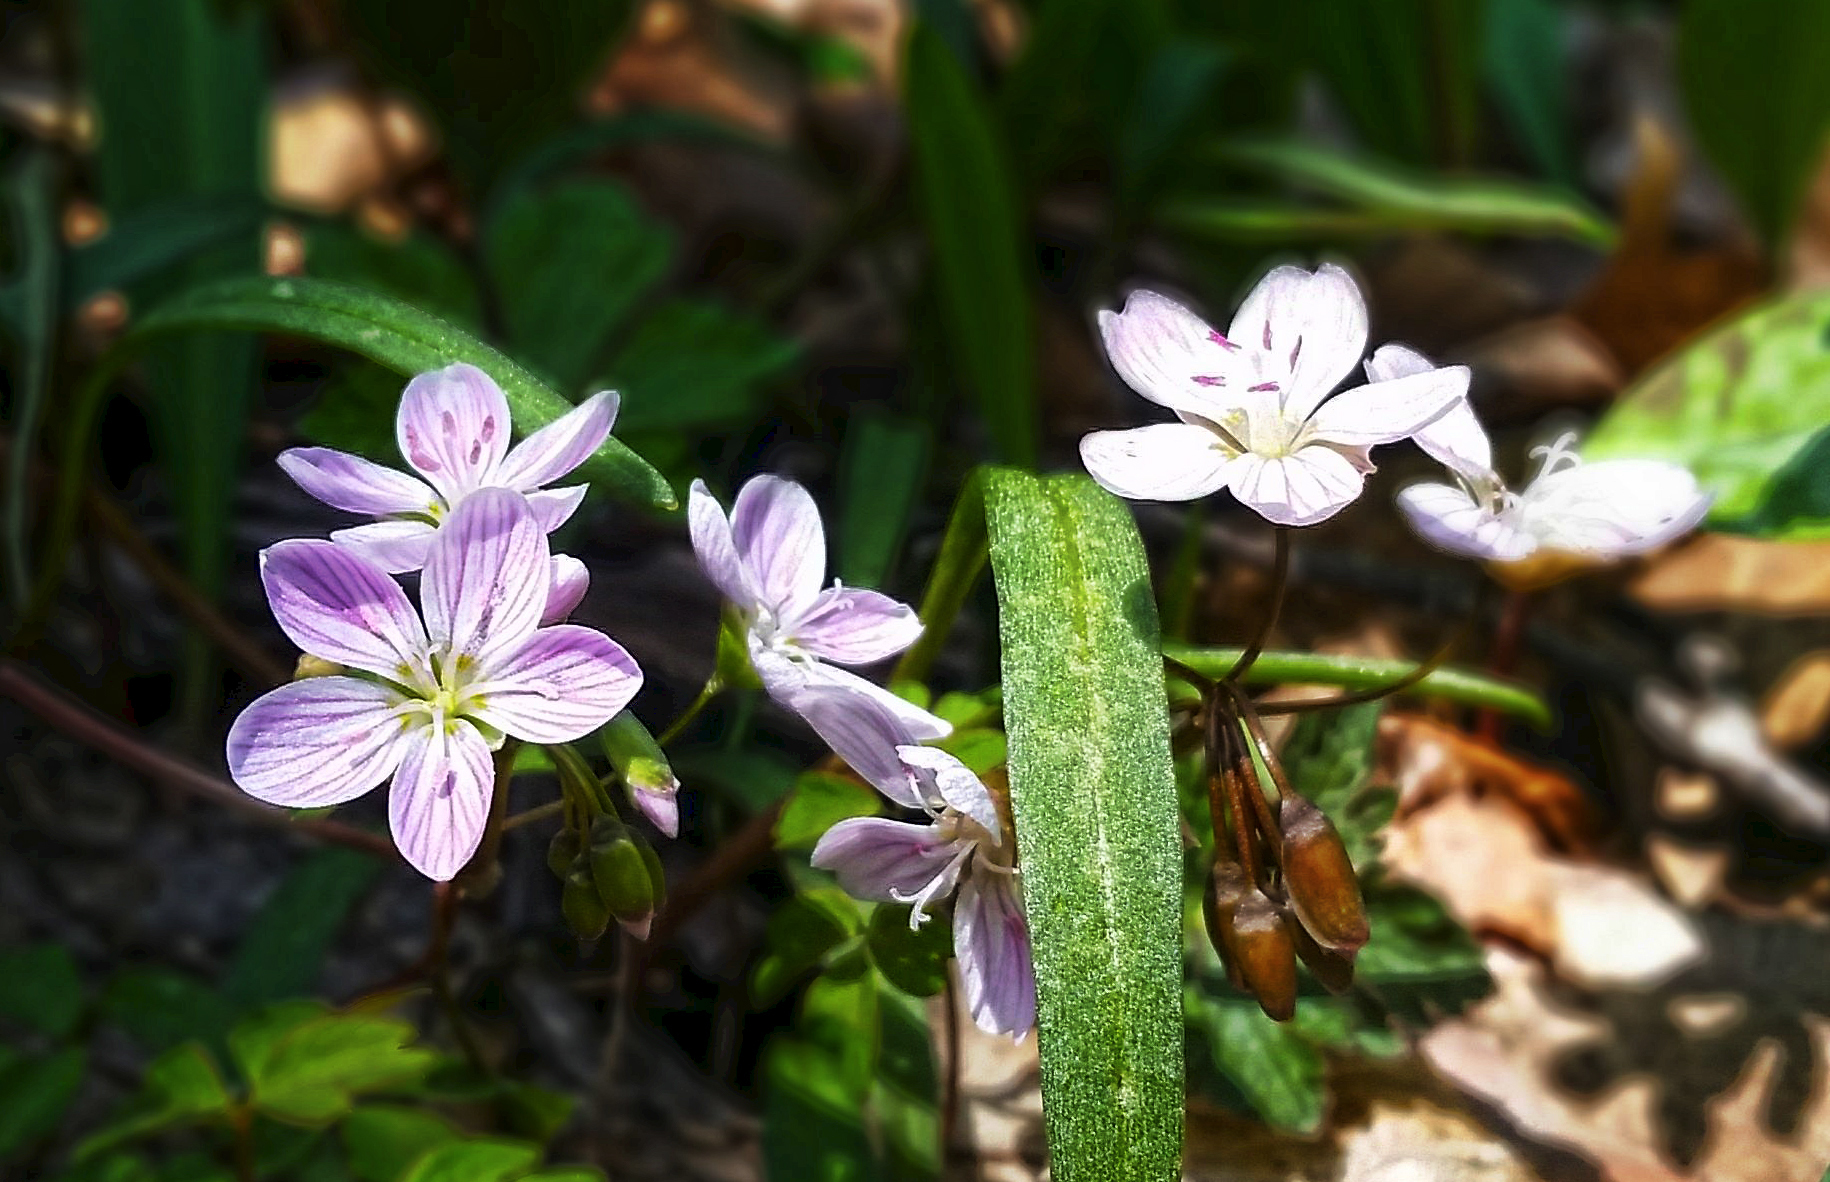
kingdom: Plantae
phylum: Tracheophyta
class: Magnoliopsida
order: Caryophyllales
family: Montiaceae
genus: Claytonia
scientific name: Claytonia virginica
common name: Virginia springbeauty
